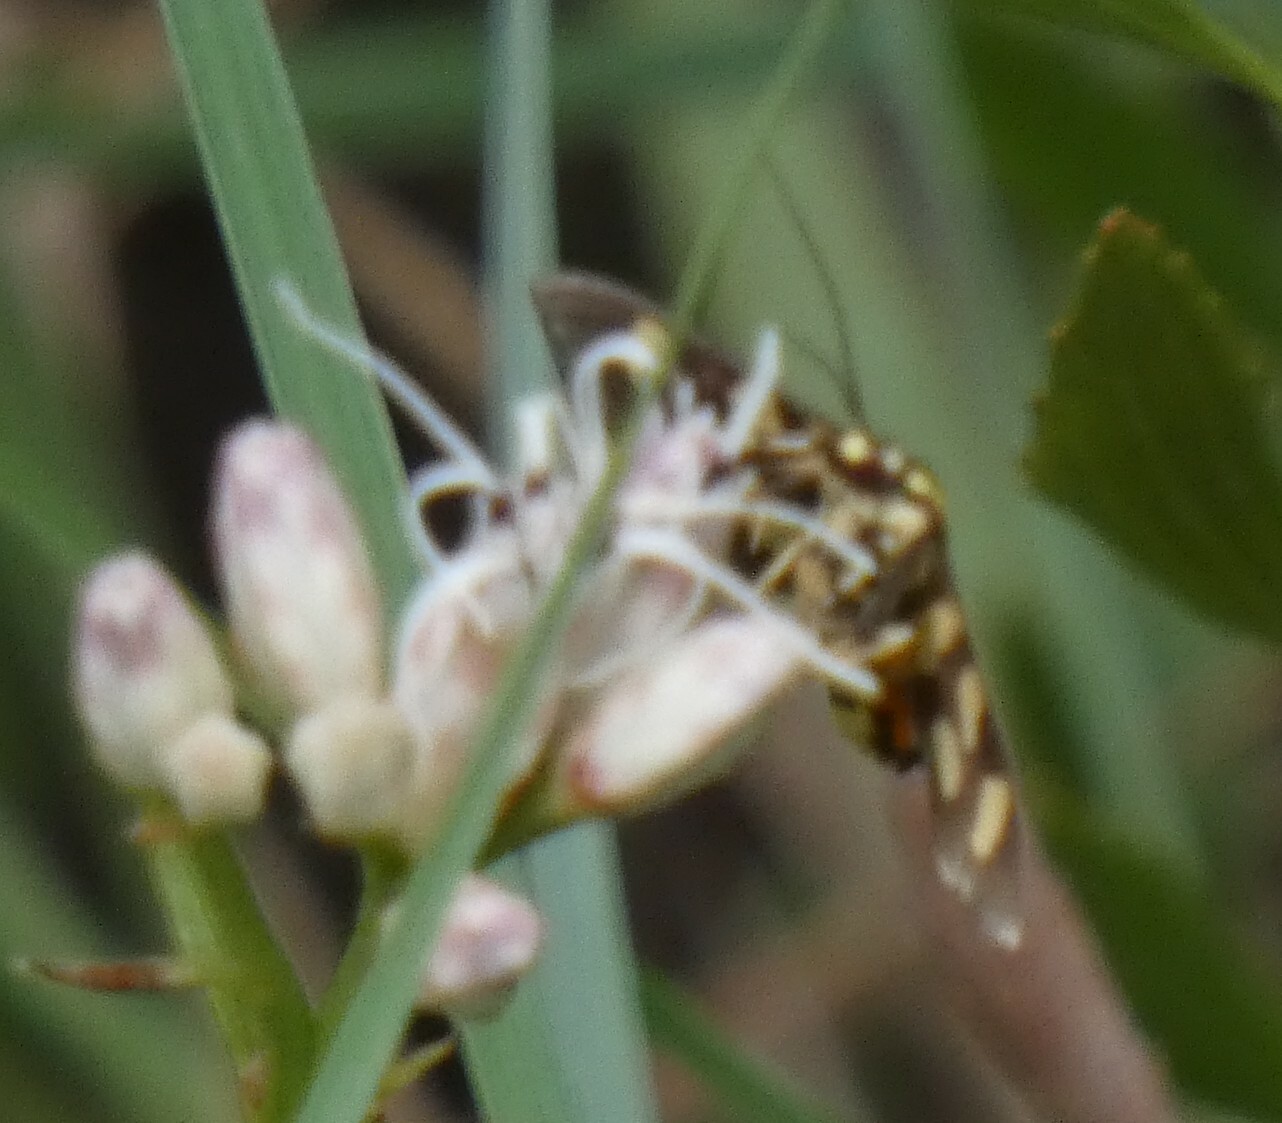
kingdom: Animalia
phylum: Arthropoda
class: Insecta
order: Lepidoptera
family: Crambidae
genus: Syngamia
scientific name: Syngamia florella
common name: Orange-spotted flower moth
